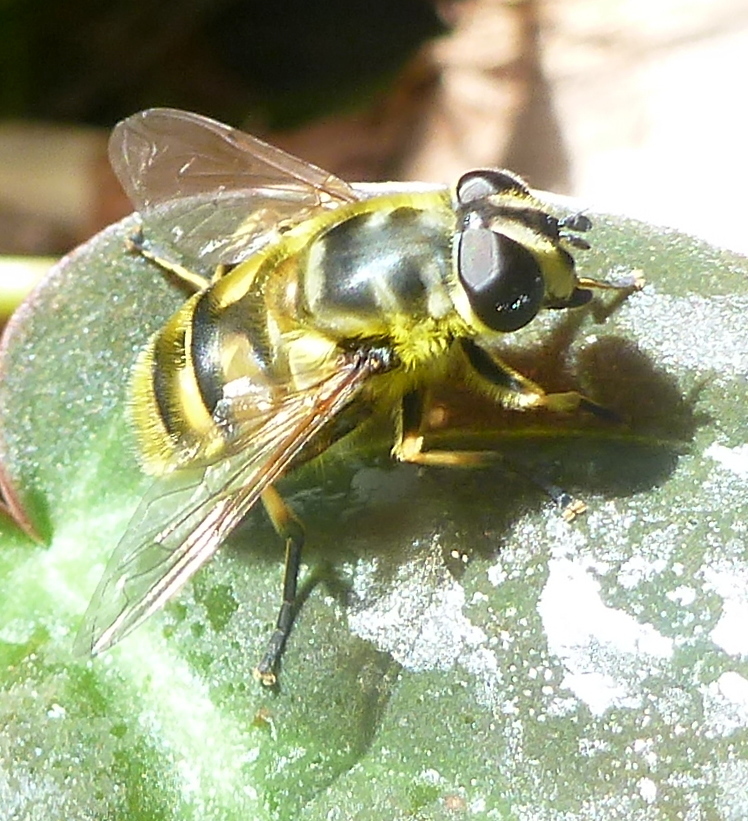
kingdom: Animalia
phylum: Arthropoda
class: Insecta
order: Diptera
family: Syrphidae
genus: Myathropa
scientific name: Myathropa florea
